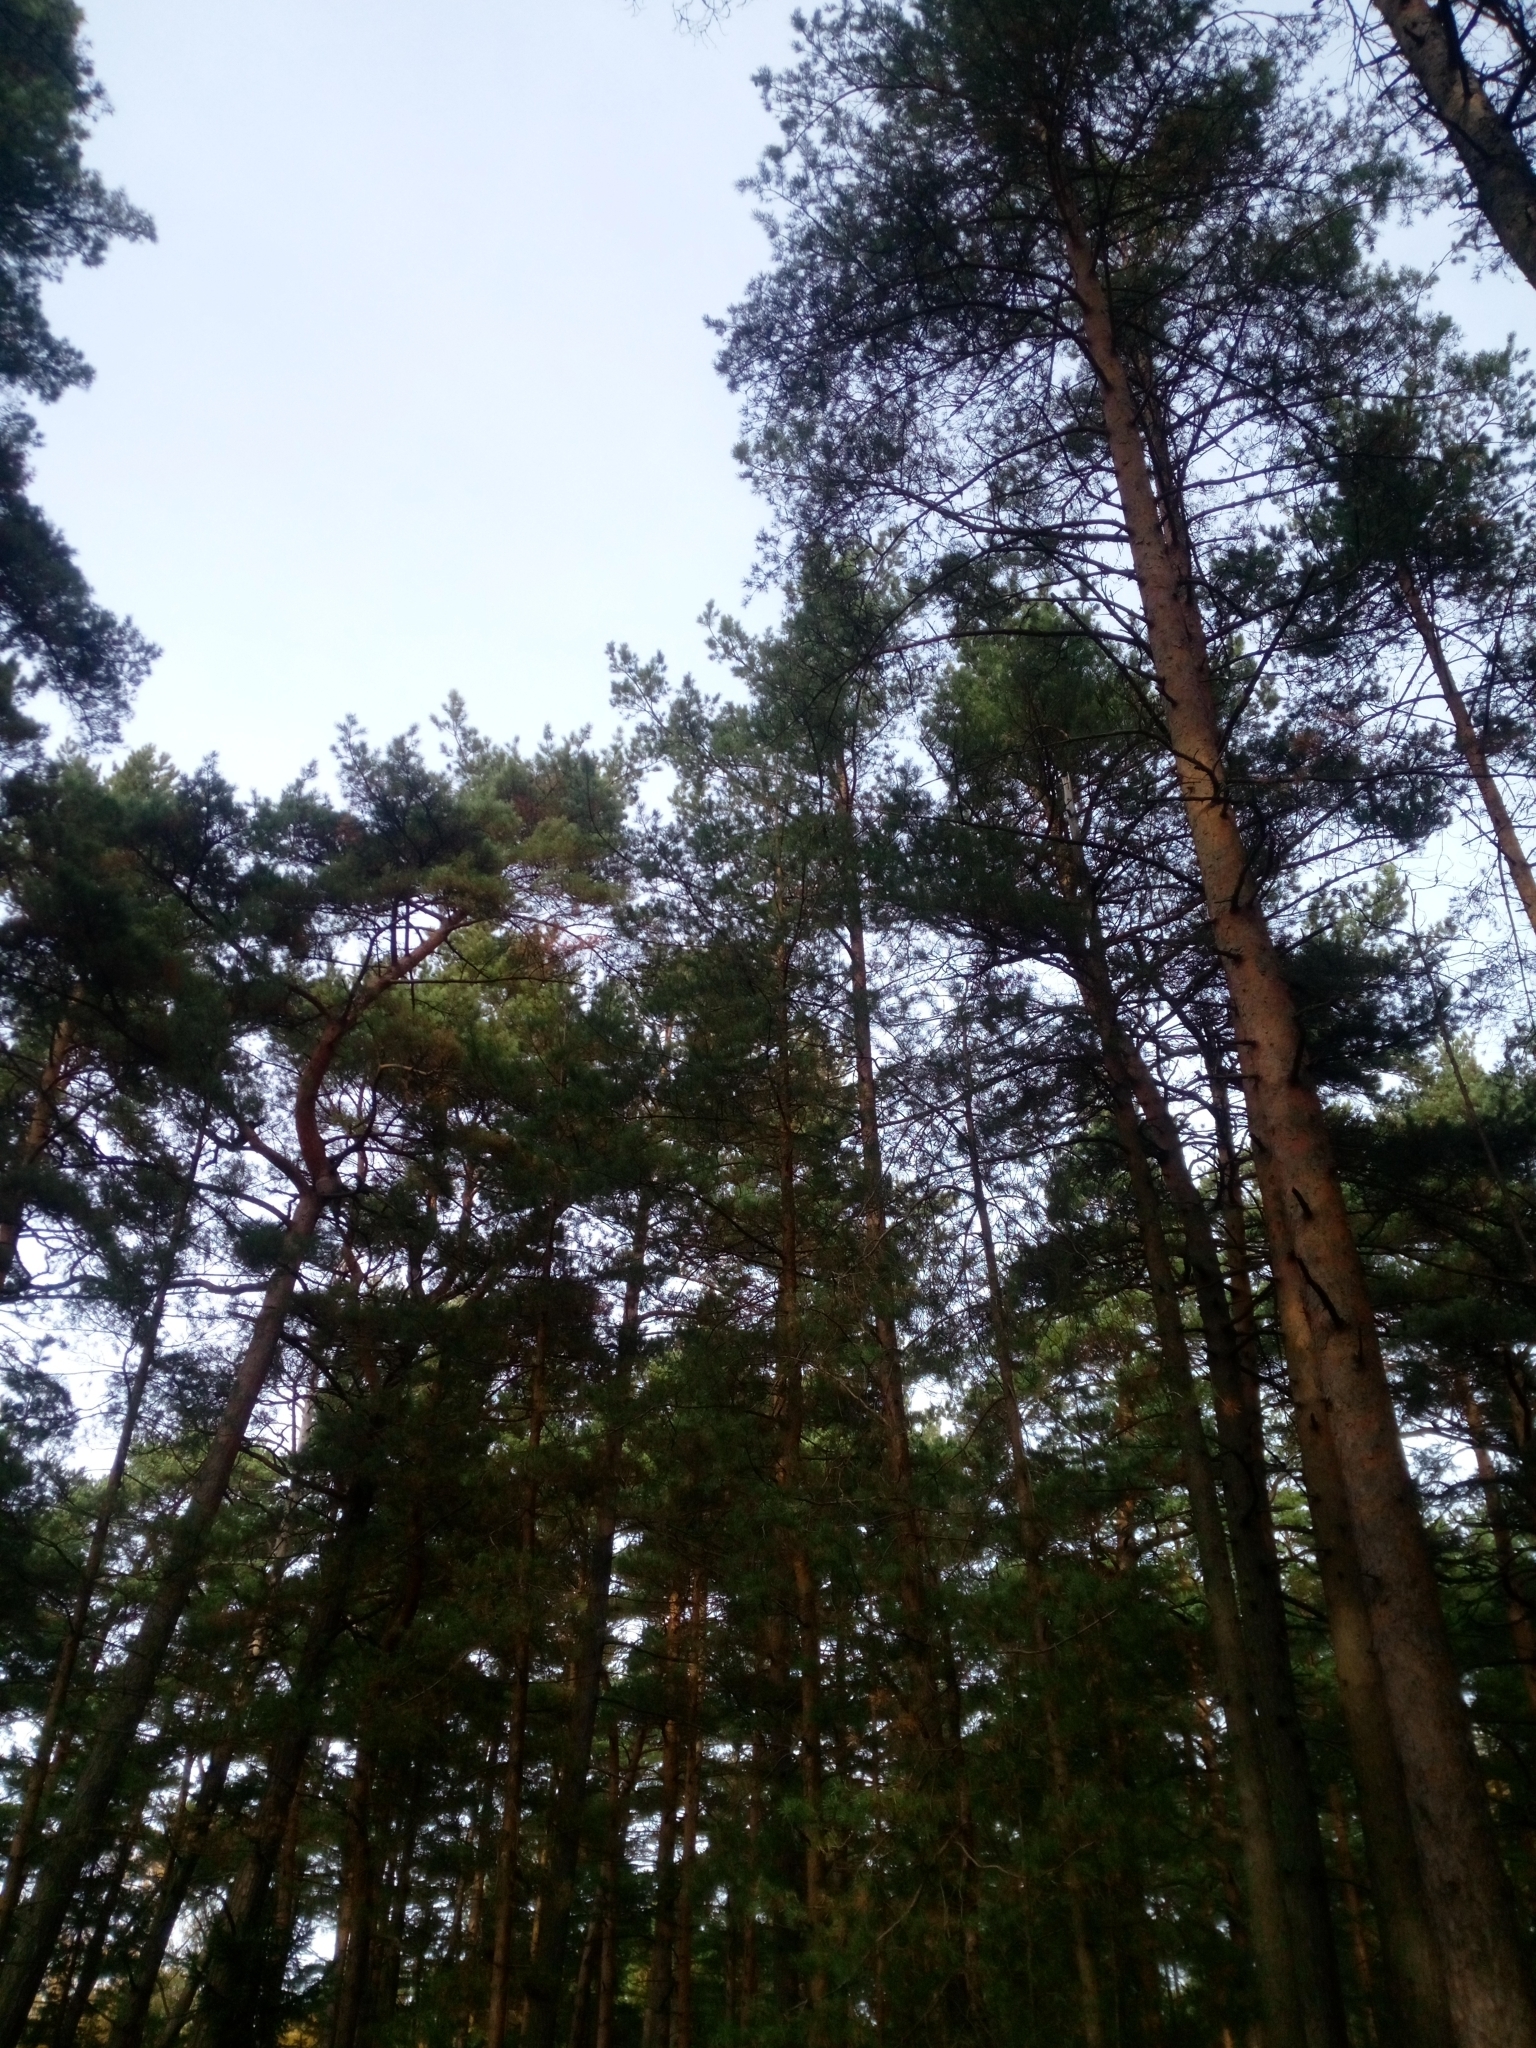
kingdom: Plantae
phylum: Tracheophyta
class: Pinopsida
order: Pinales
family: Pinaceae
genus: Pinus
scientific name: Pinus sylvestris
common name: Scots pine
